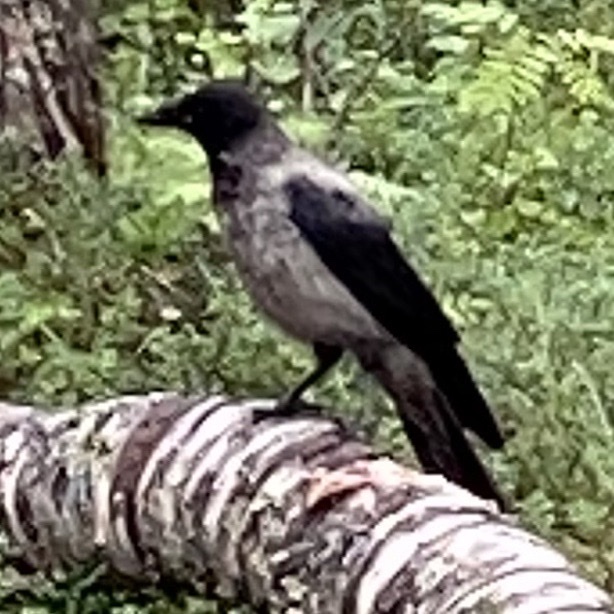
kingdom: Animalia
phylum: Chordata
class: Aves
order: Passeriformes
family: Corvidae
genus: Corvus
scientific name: Corvus cornix
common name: Hooded crow
